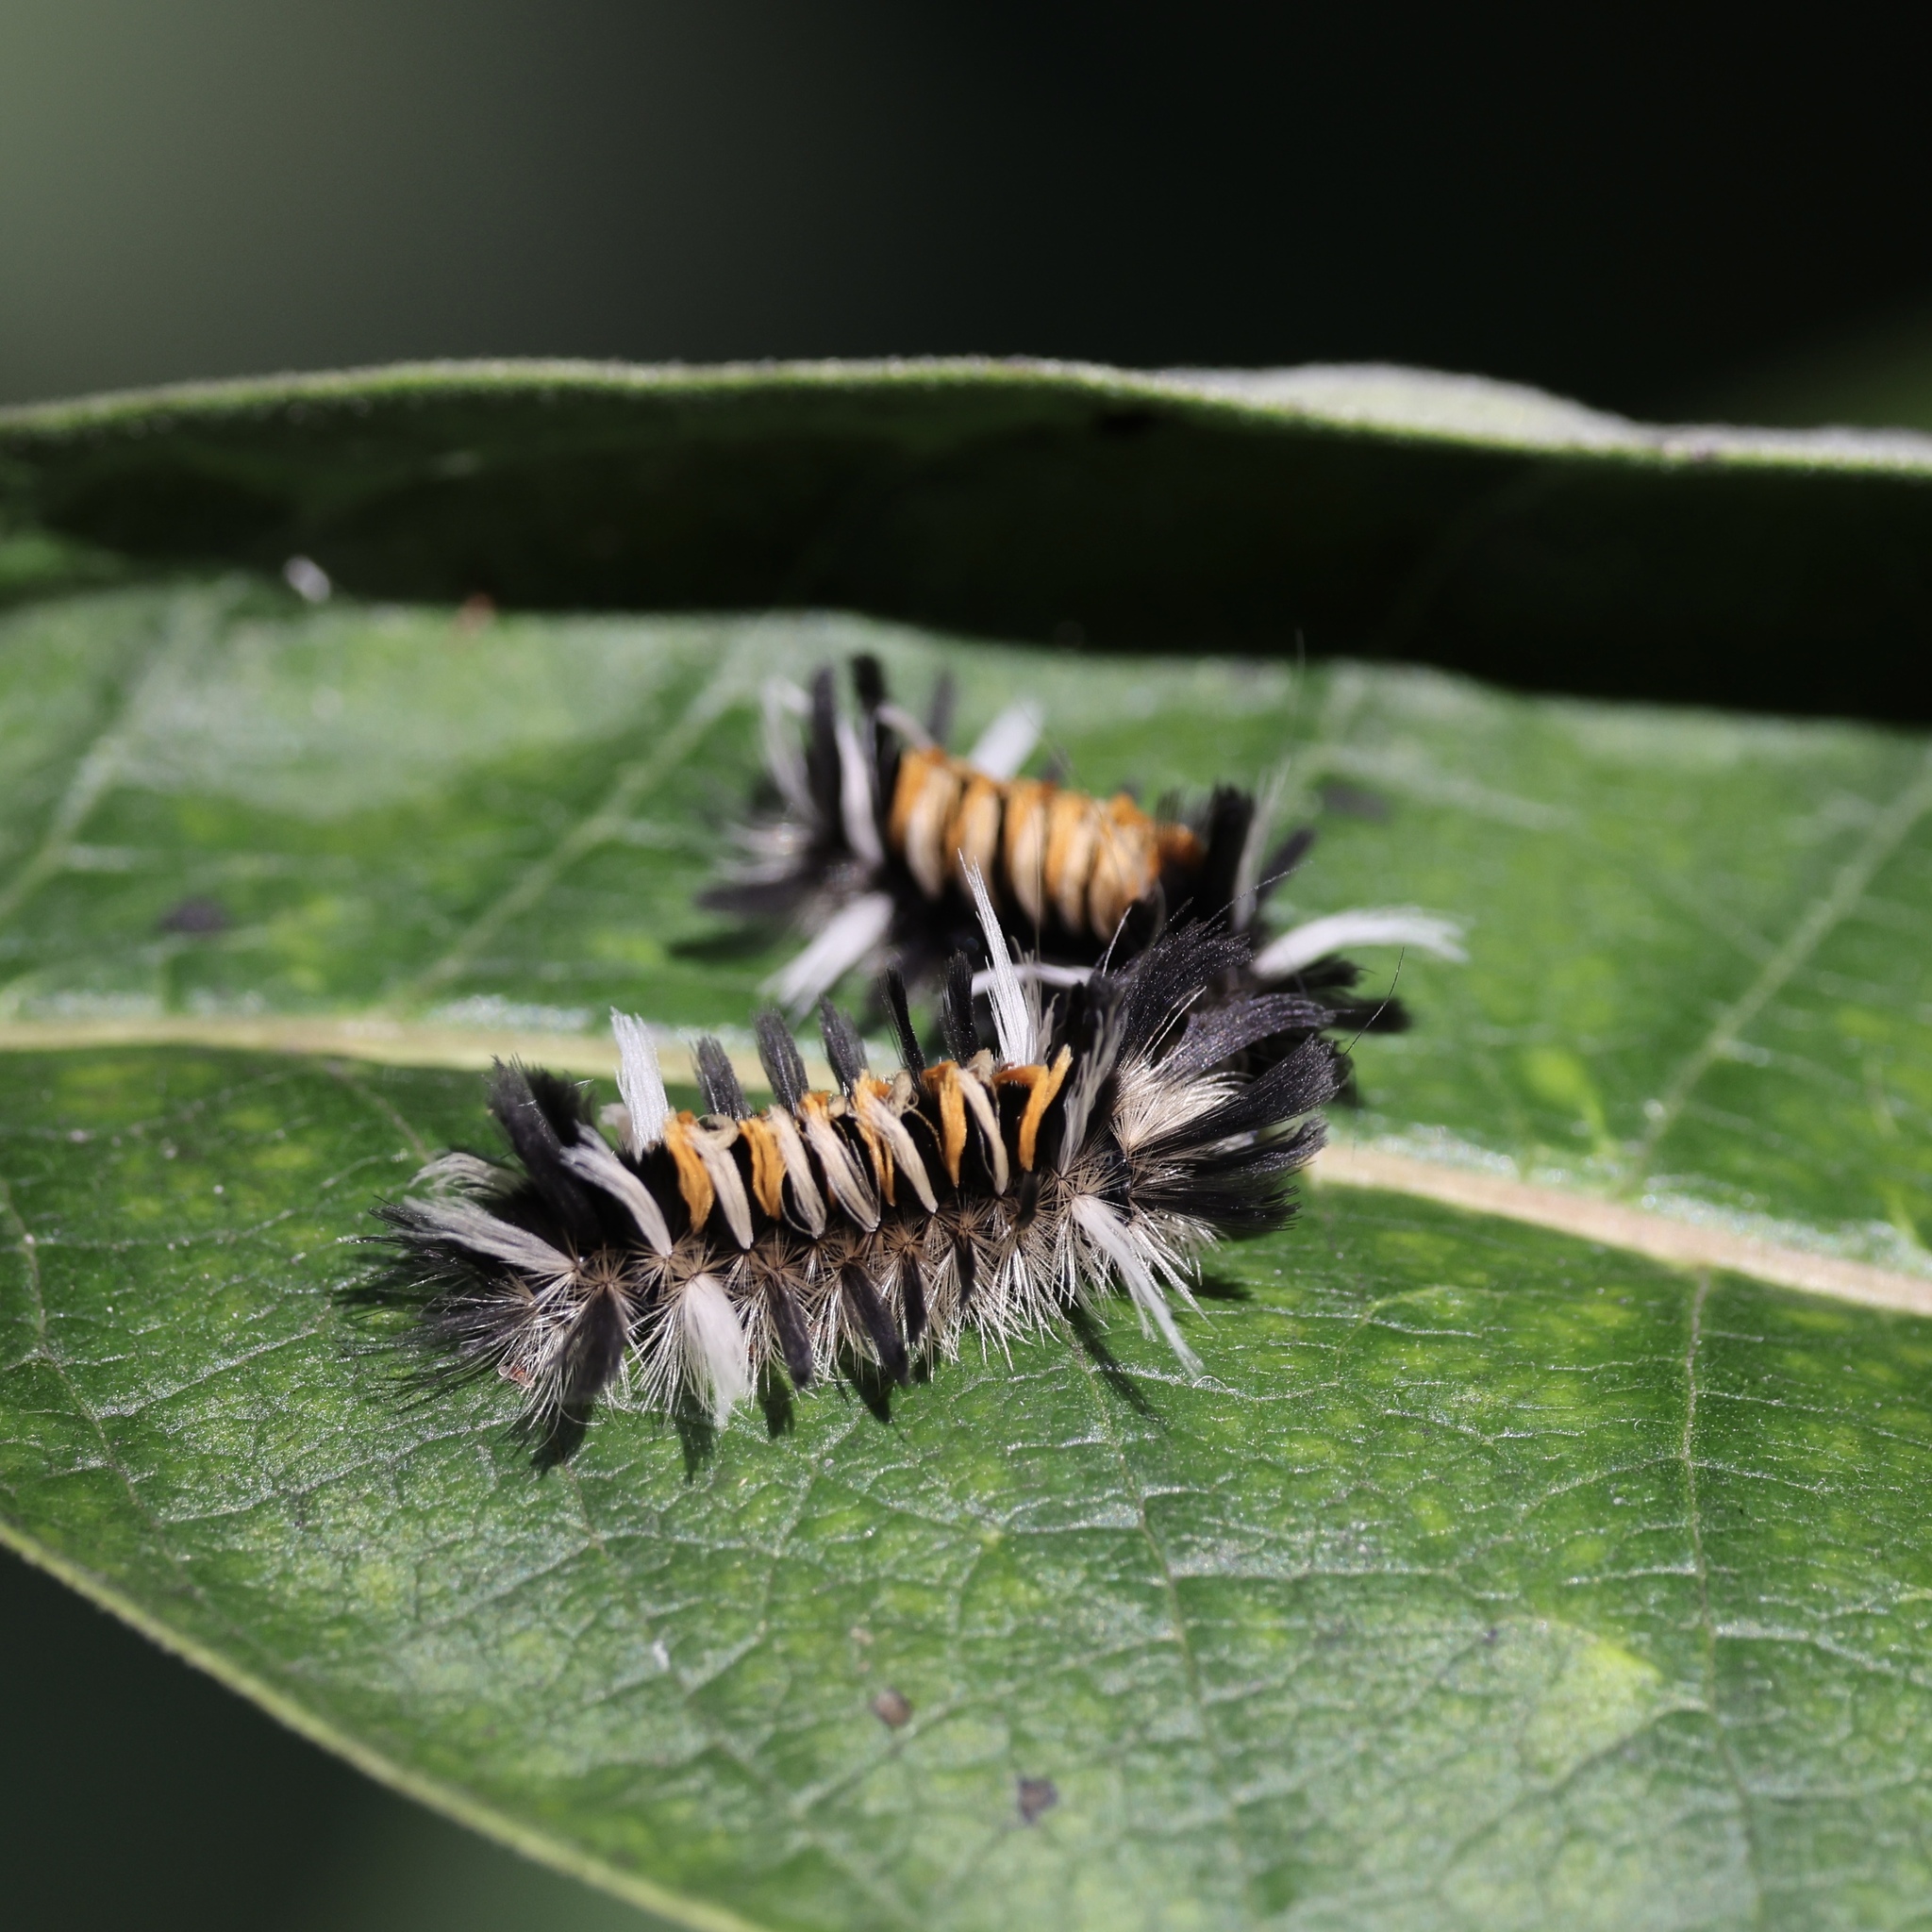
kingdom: Animalia
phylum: Arthropoda
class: Insecta
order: Lepidoptera
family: Erebidae
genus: Euchaetes
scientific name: Euchaetes egle
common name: Milkweed tussock moth
